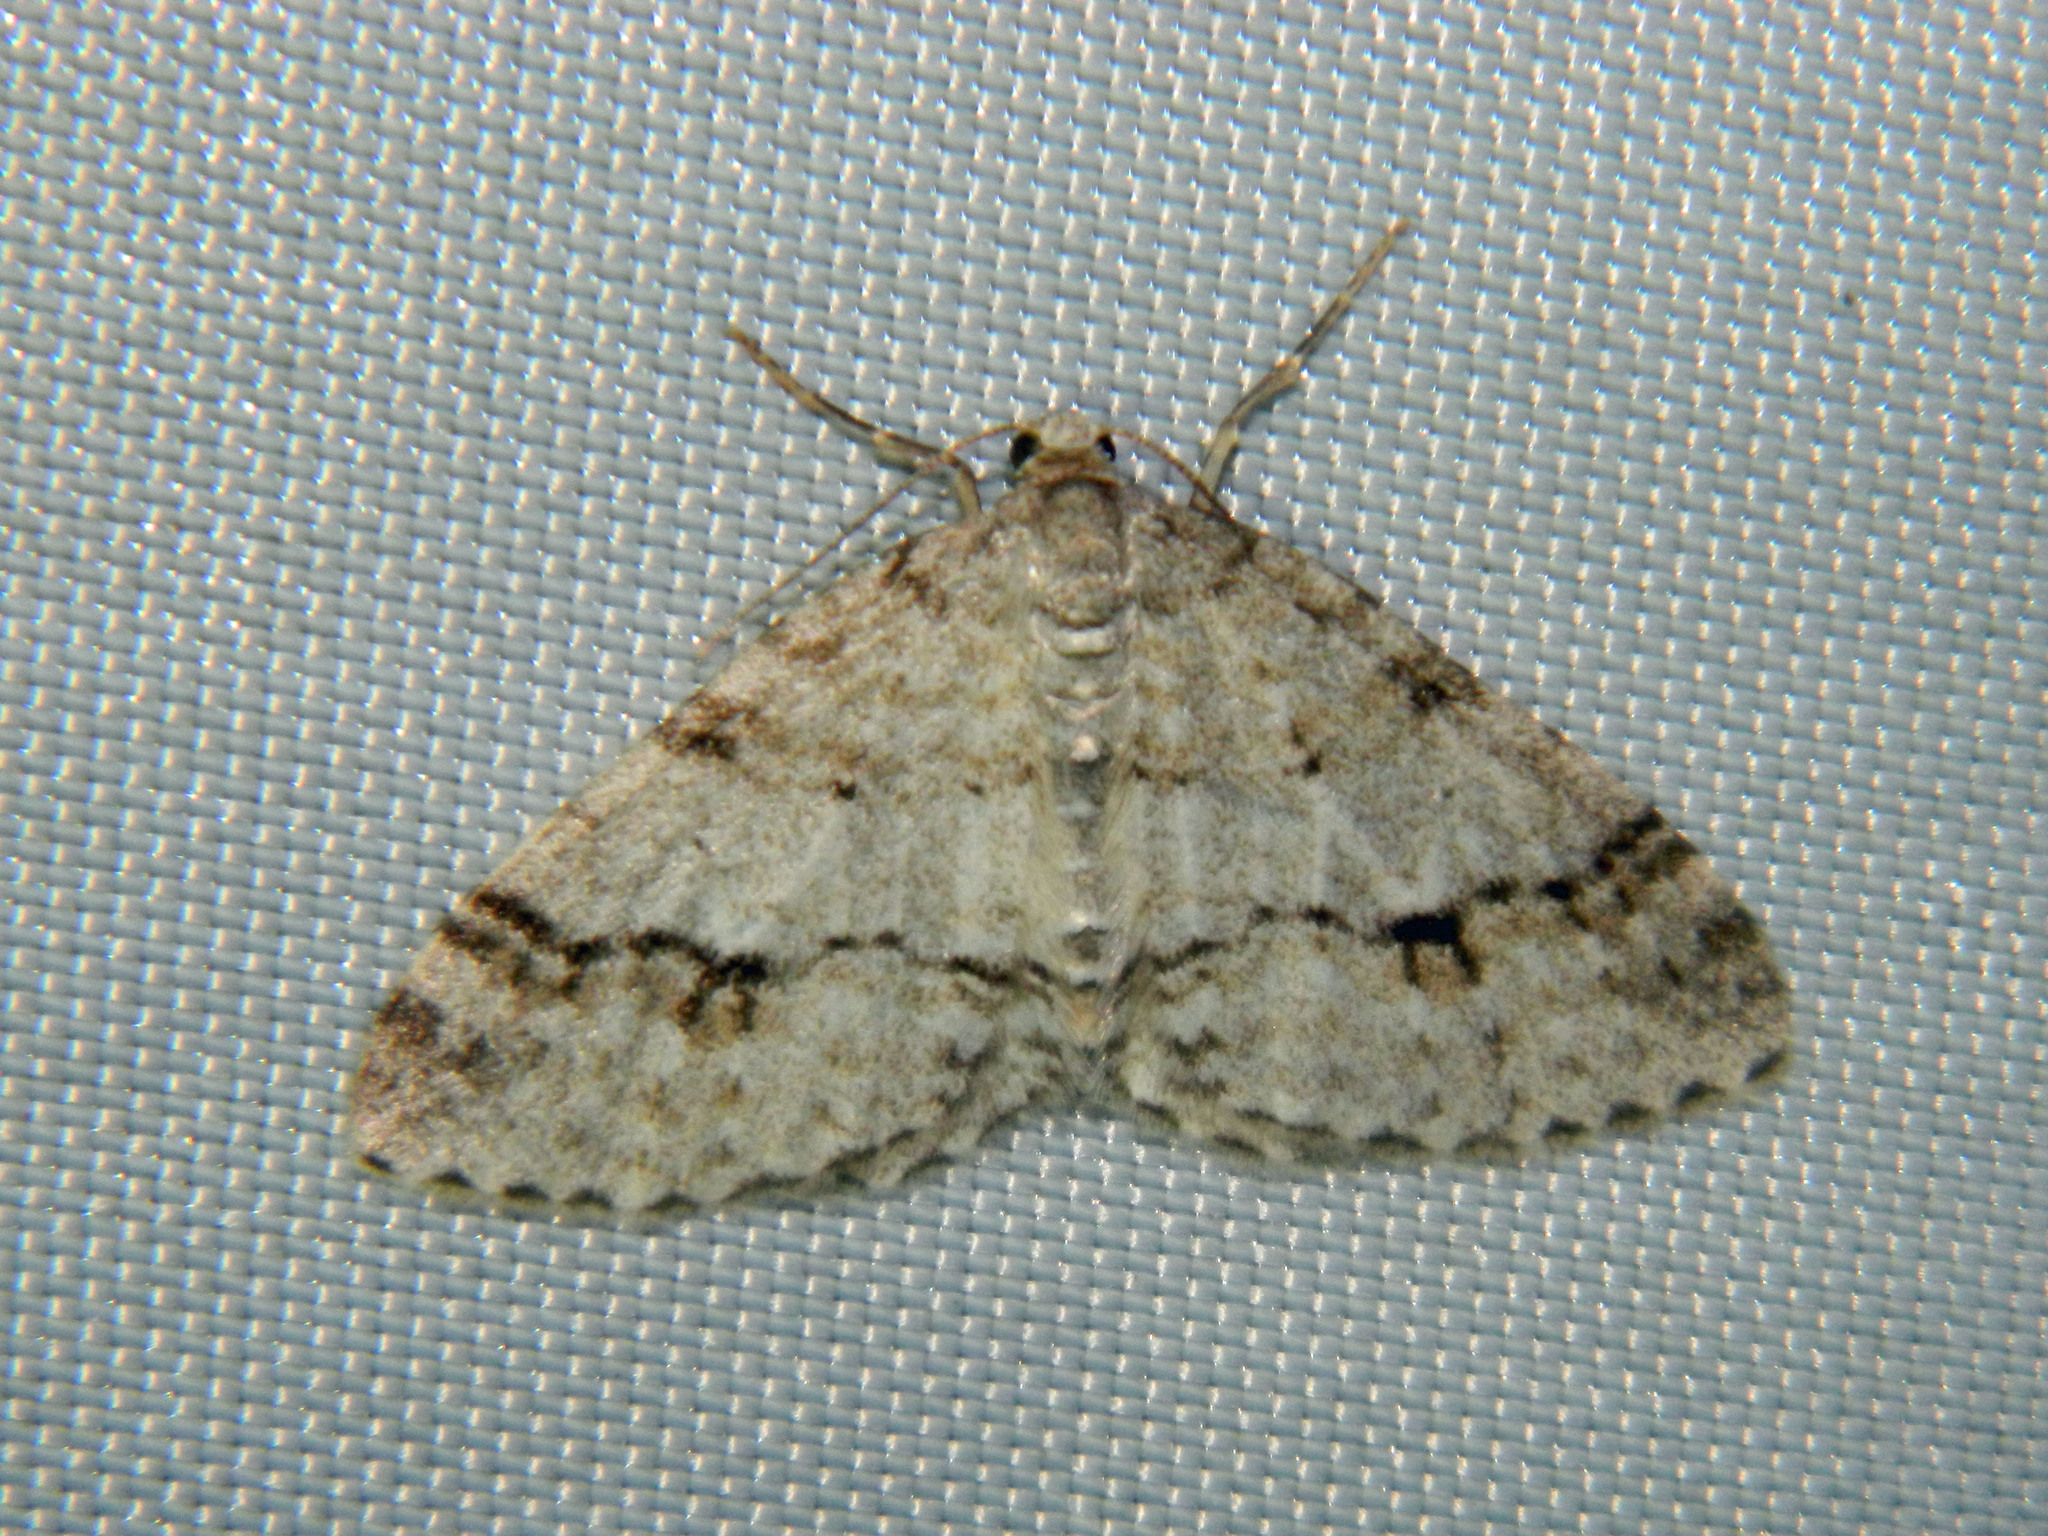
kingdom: Animalia
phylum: Arthropoda
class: Insecta
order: Lepidoptera
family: Geometridae
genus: Venusia
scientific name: Venusia cambrica
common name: Welsh wave
